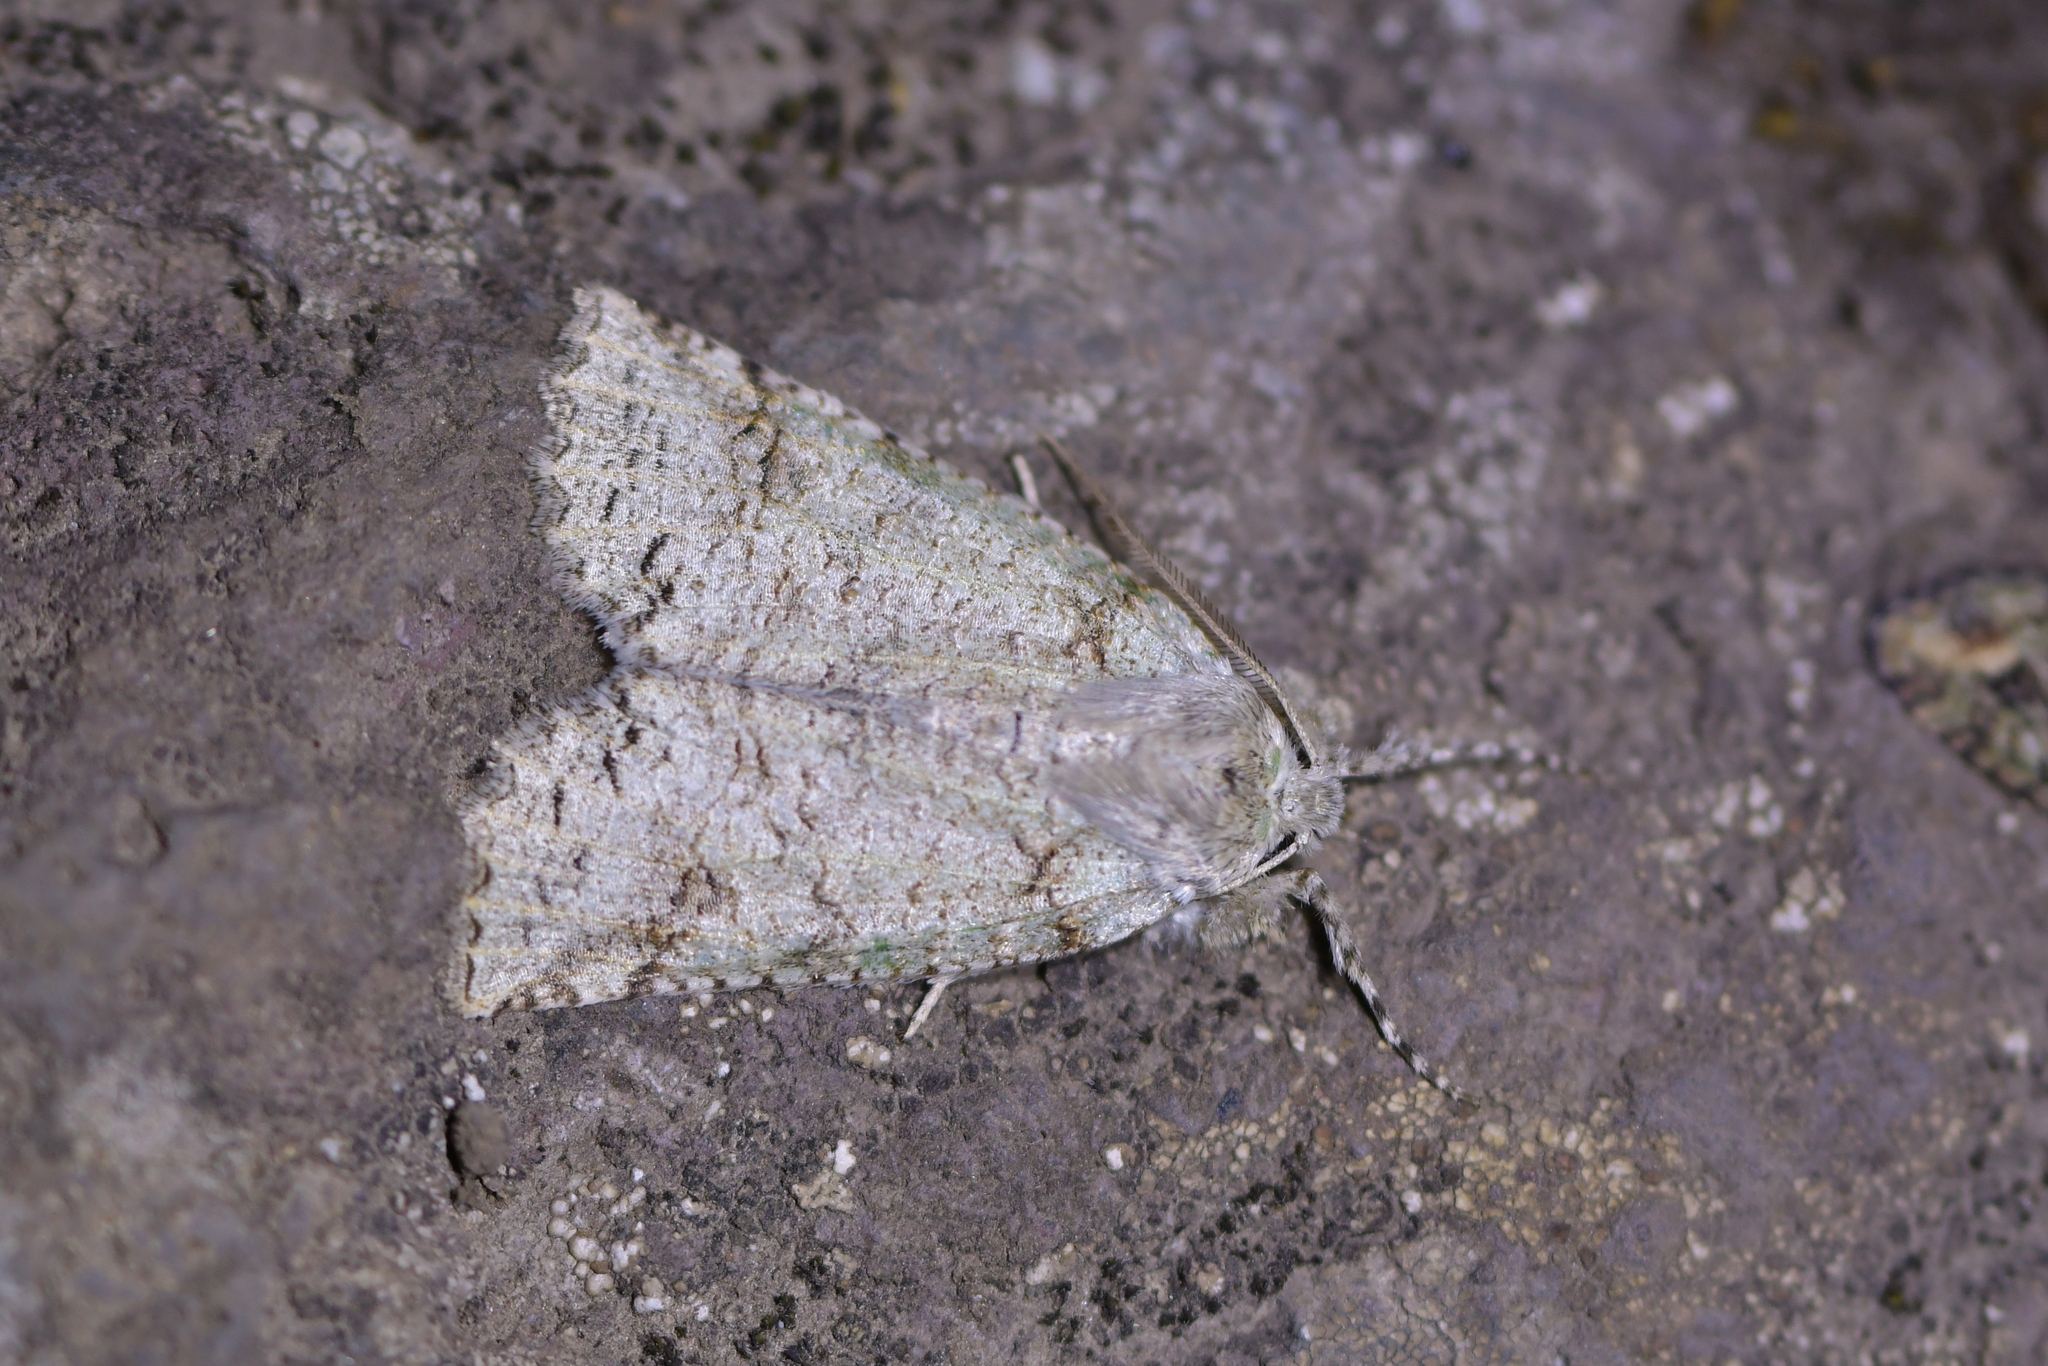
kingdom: Animalia
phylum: Arthropoda
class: Insecta
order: Lepidoptera
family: Geometridae
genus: Declana
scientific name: Declana floccosa
